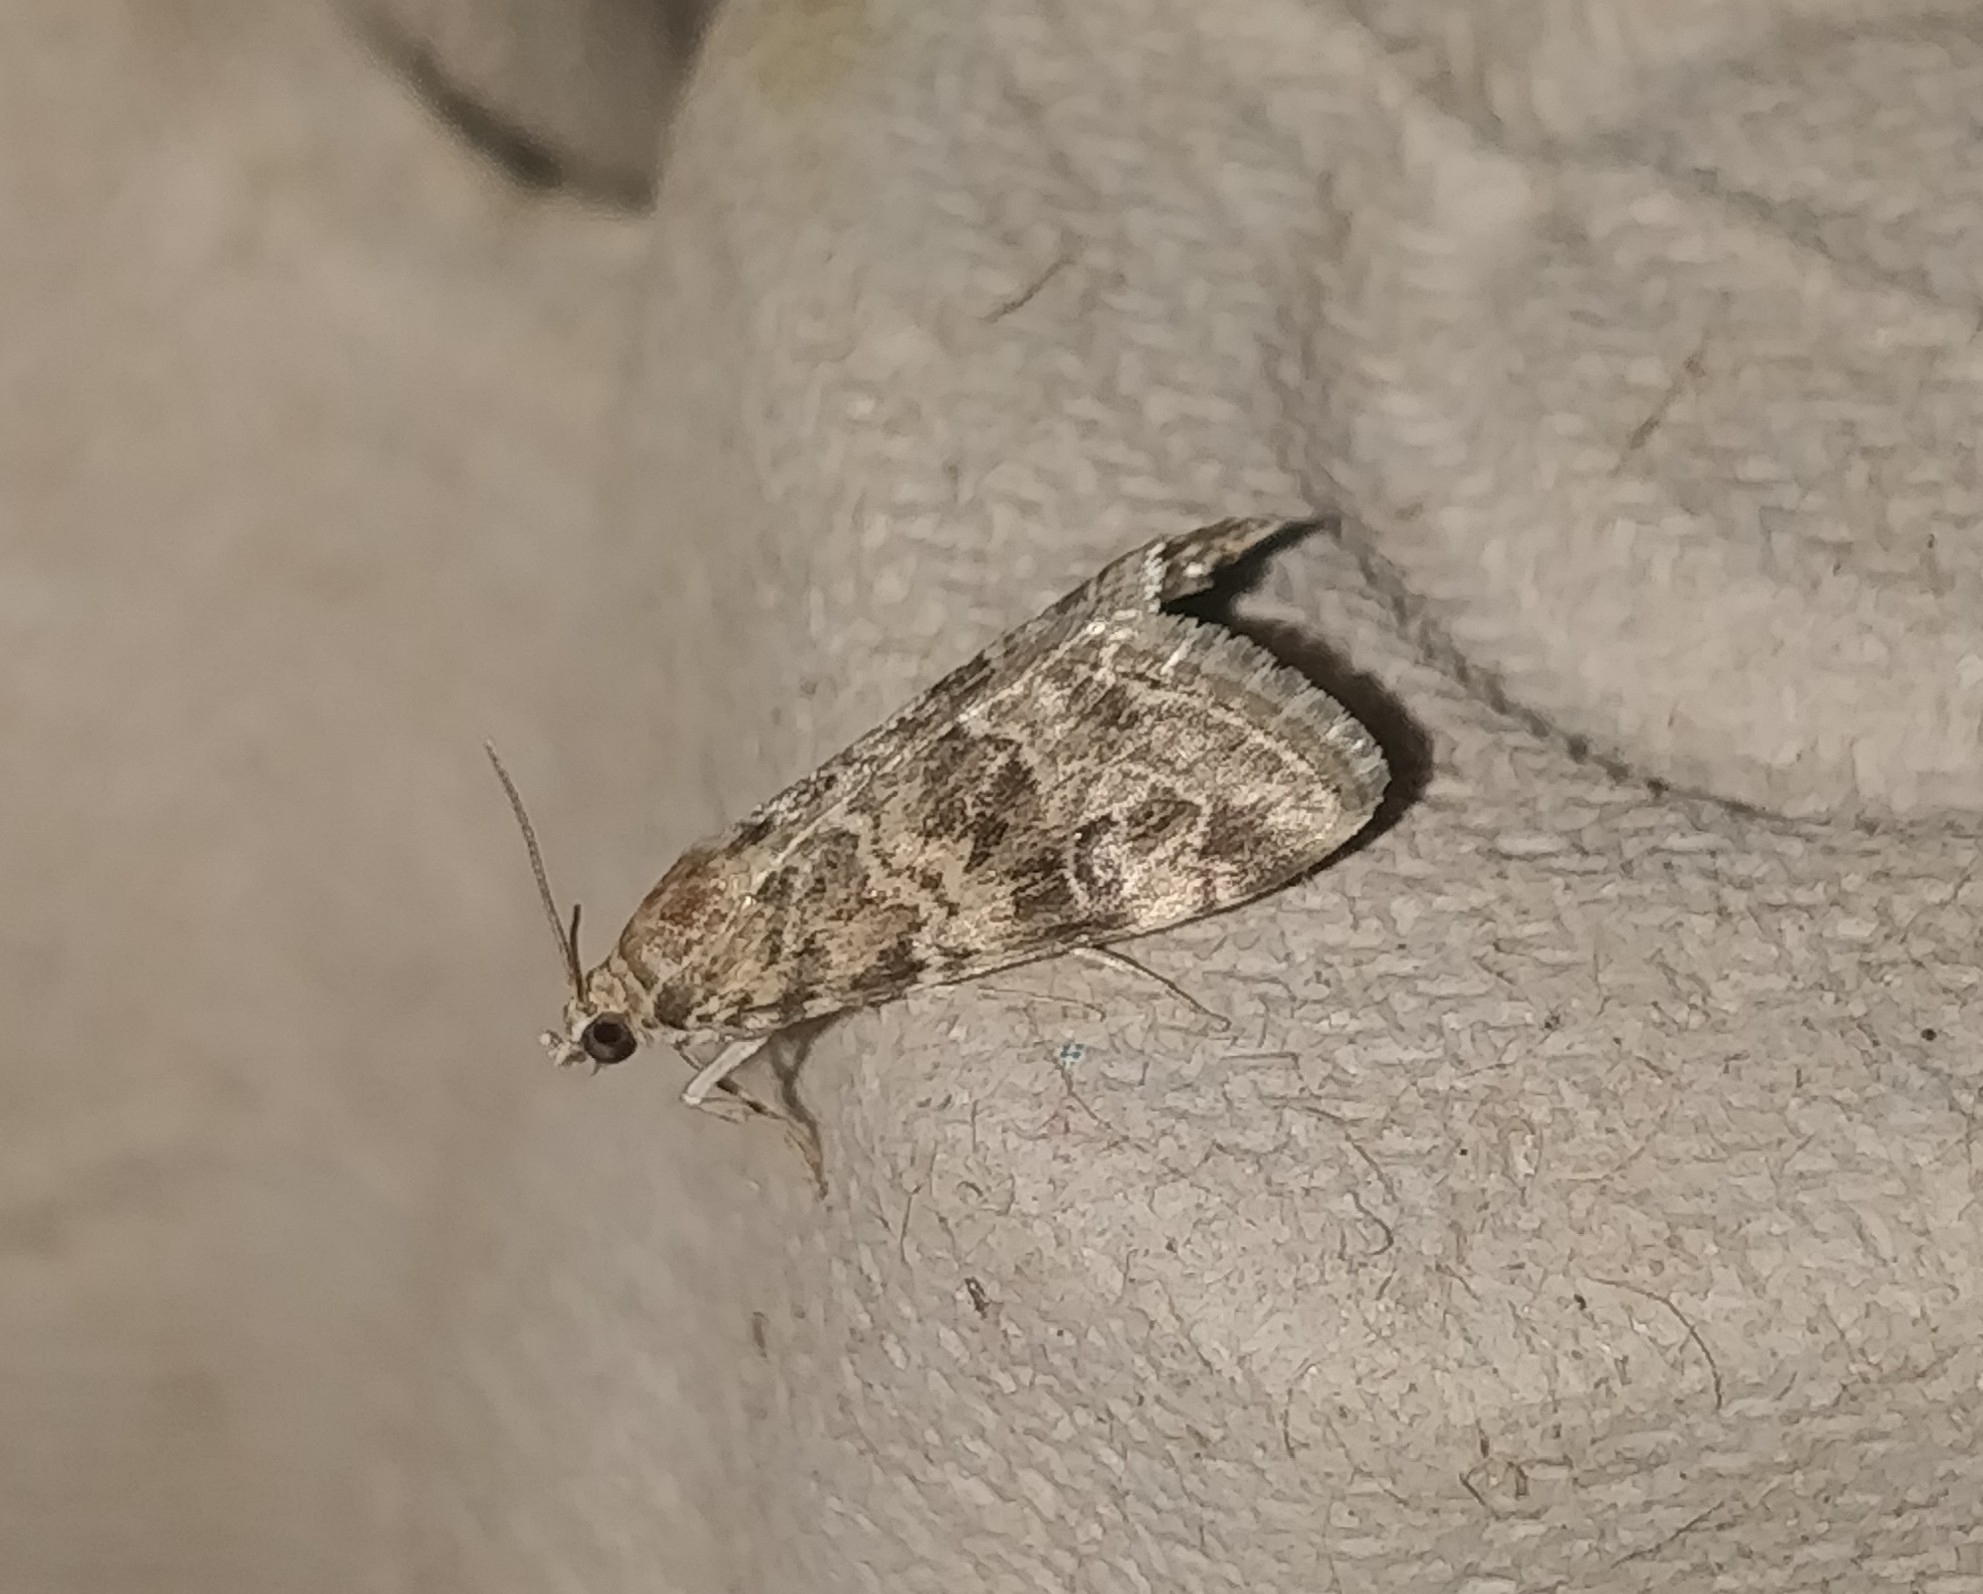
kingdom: Animalia
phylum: Arthropoda
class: Insecta
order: Lepidoptera
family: Crambidae
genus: Hellula
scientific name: Hellula undalis
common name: Cabbage webworm
